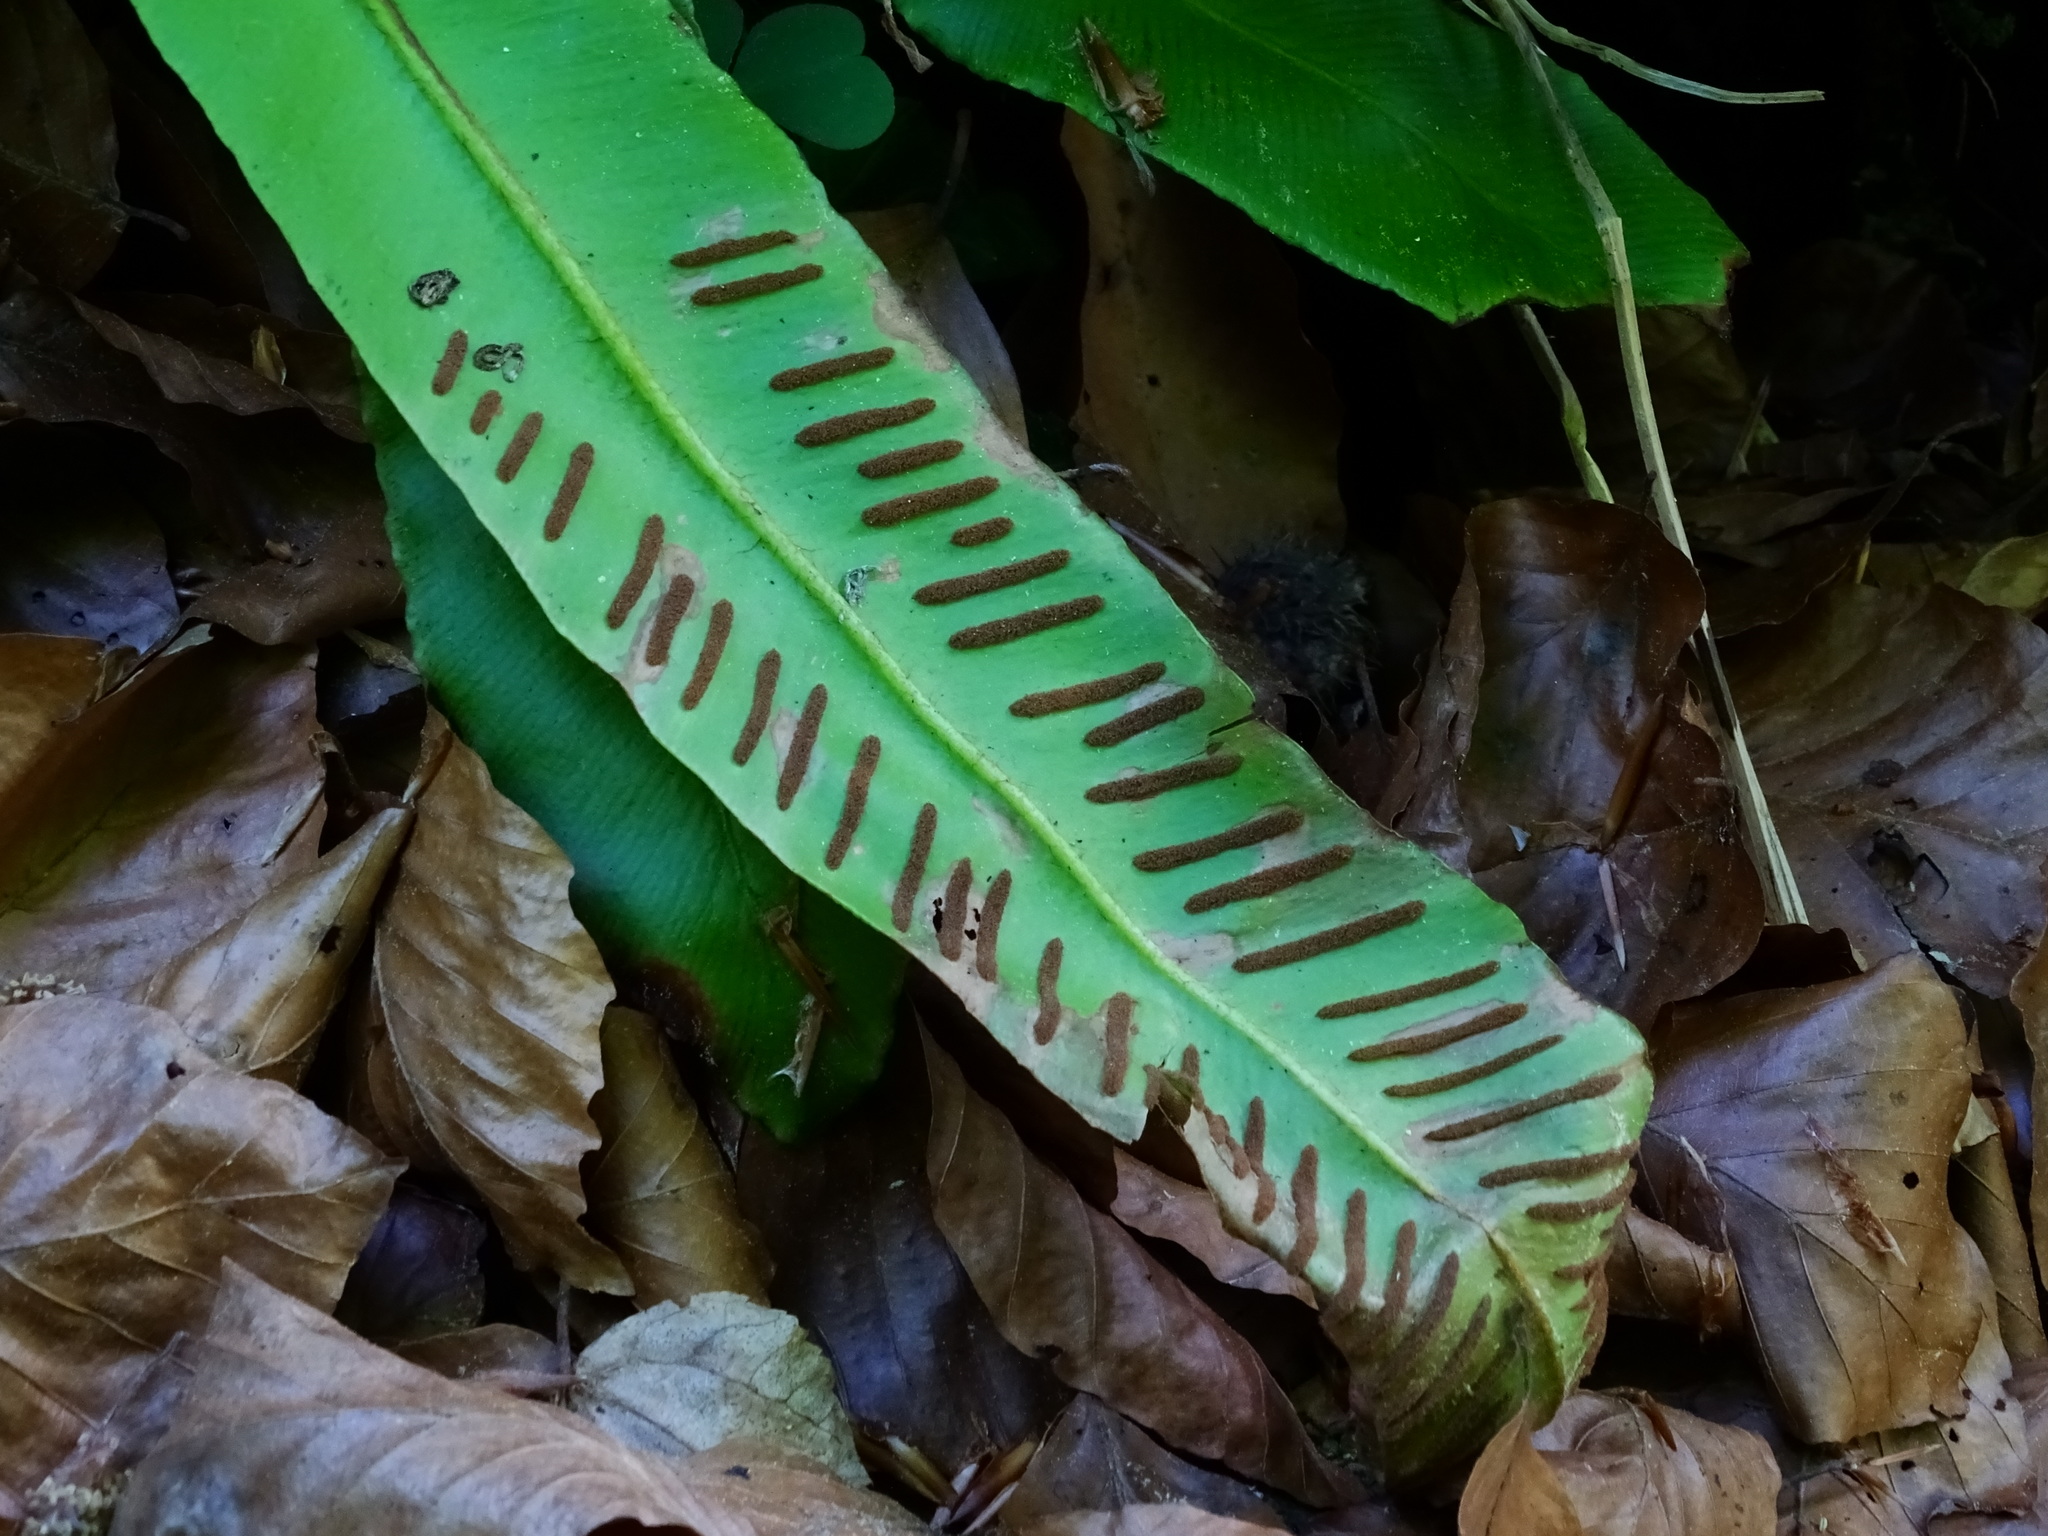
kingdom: Plantae
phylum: Tracheophyta
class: Polypodiopsida
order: Polypodiales
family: Aspleniaceae
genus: Asplenium
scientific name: Asplenium scolopendrium
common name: Hart's-tongue fern
